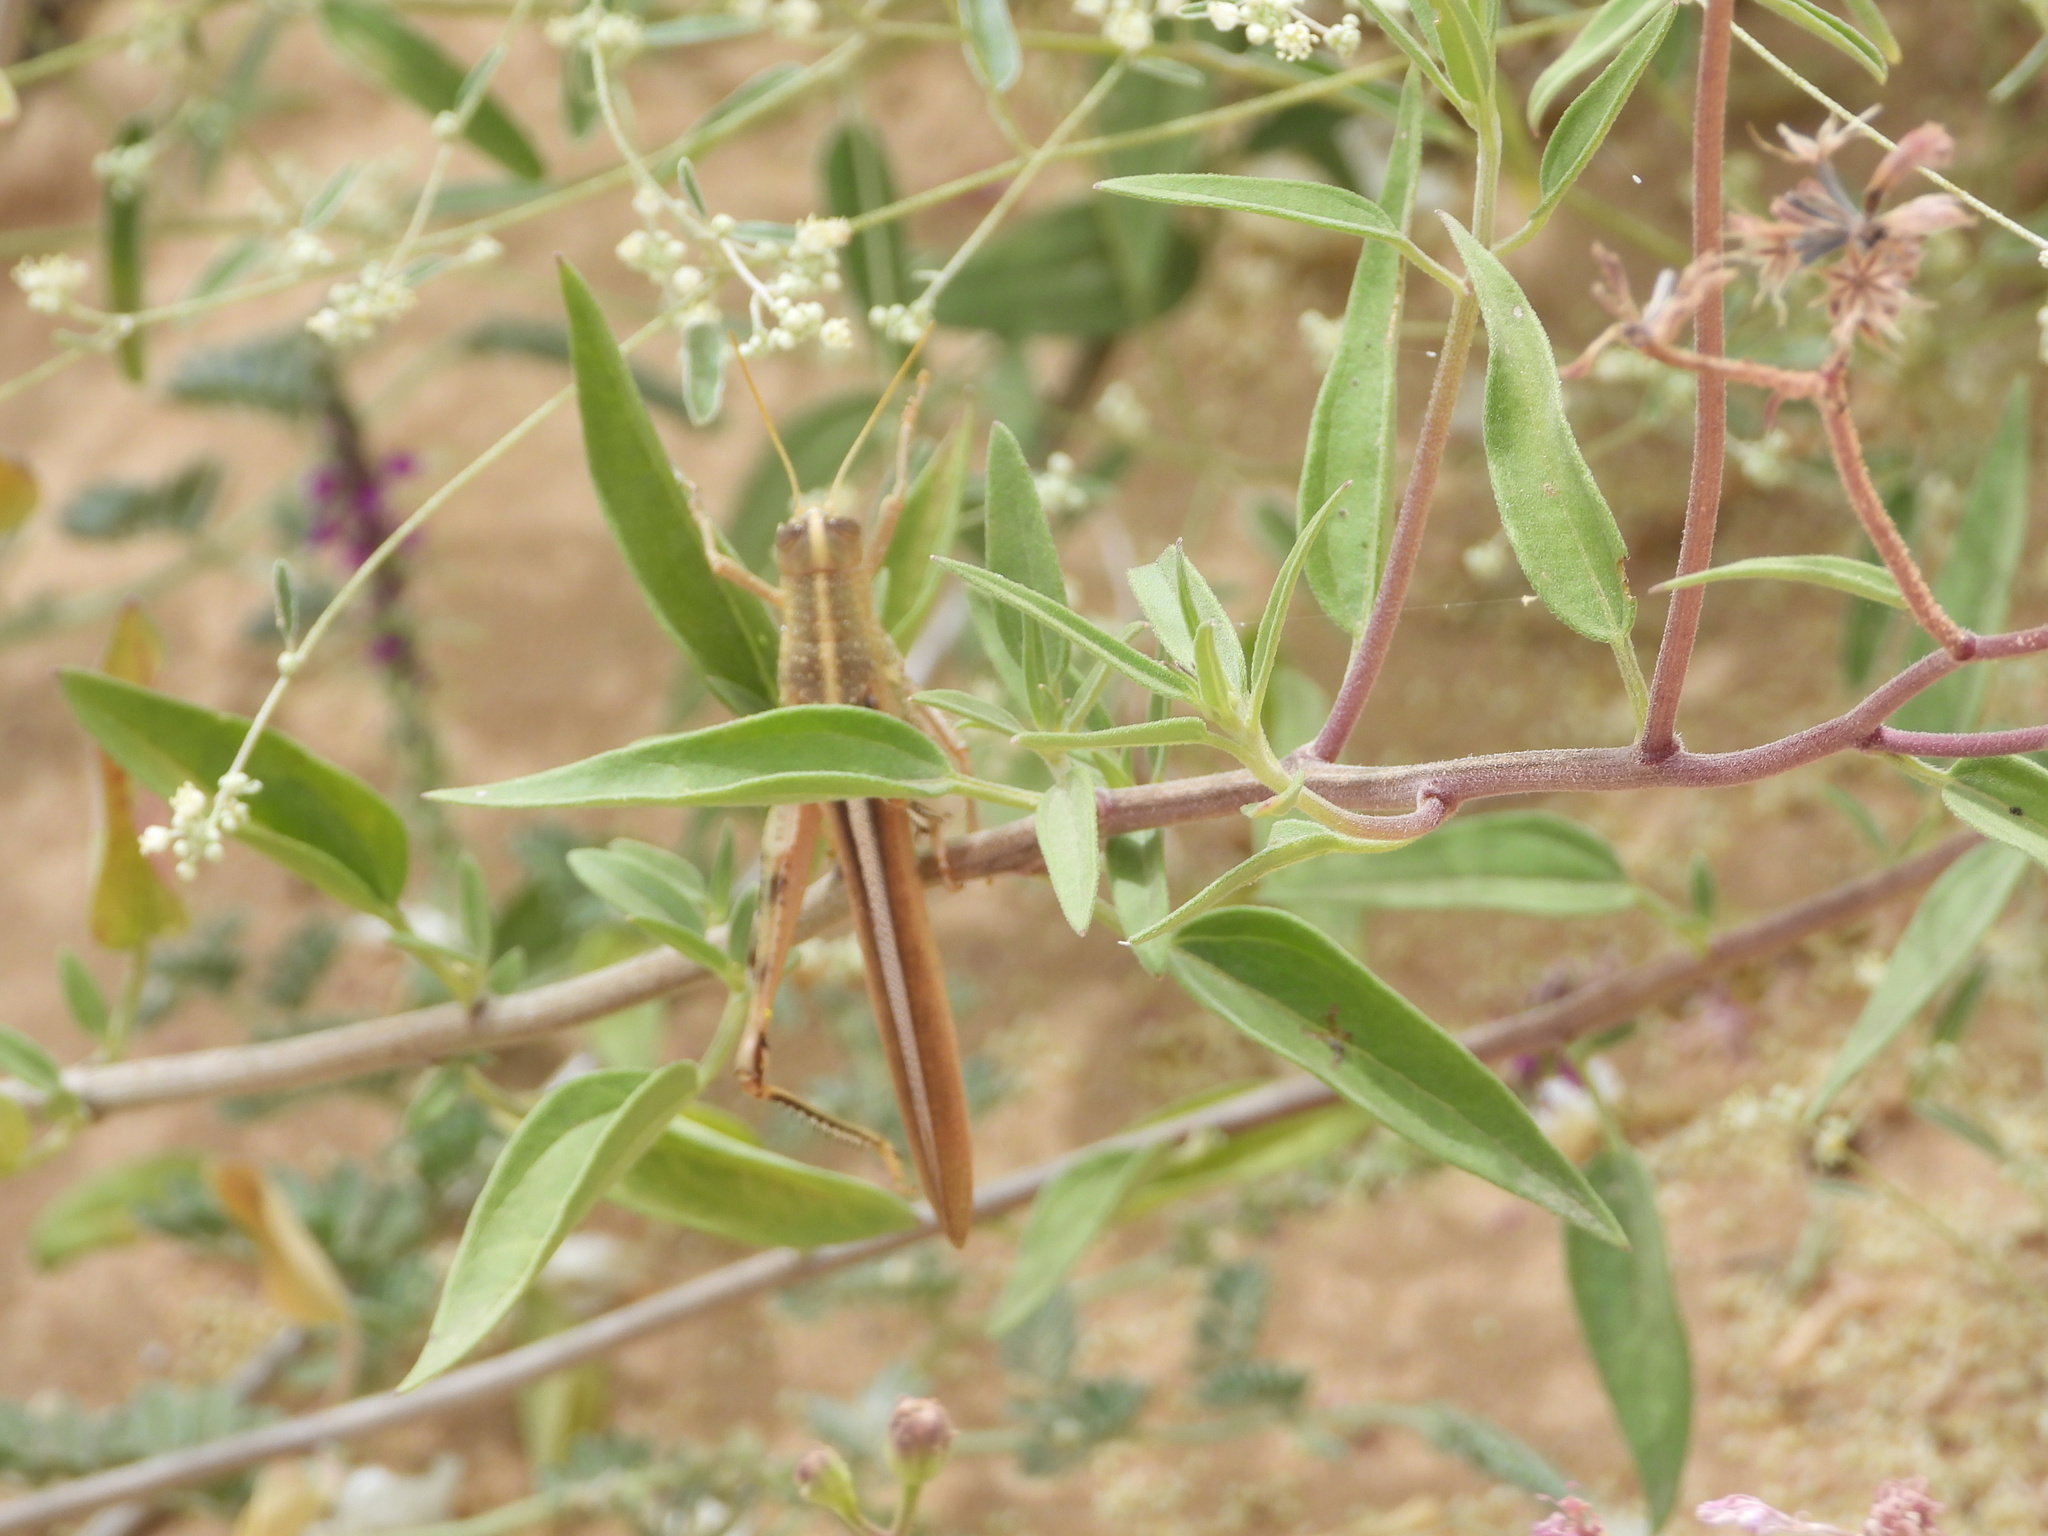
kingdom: Animalia
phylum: Arthropoda
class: Insecta
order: Orthoptera
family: Acrididae
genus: Schistocerca
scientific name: Schistocerca lineata
